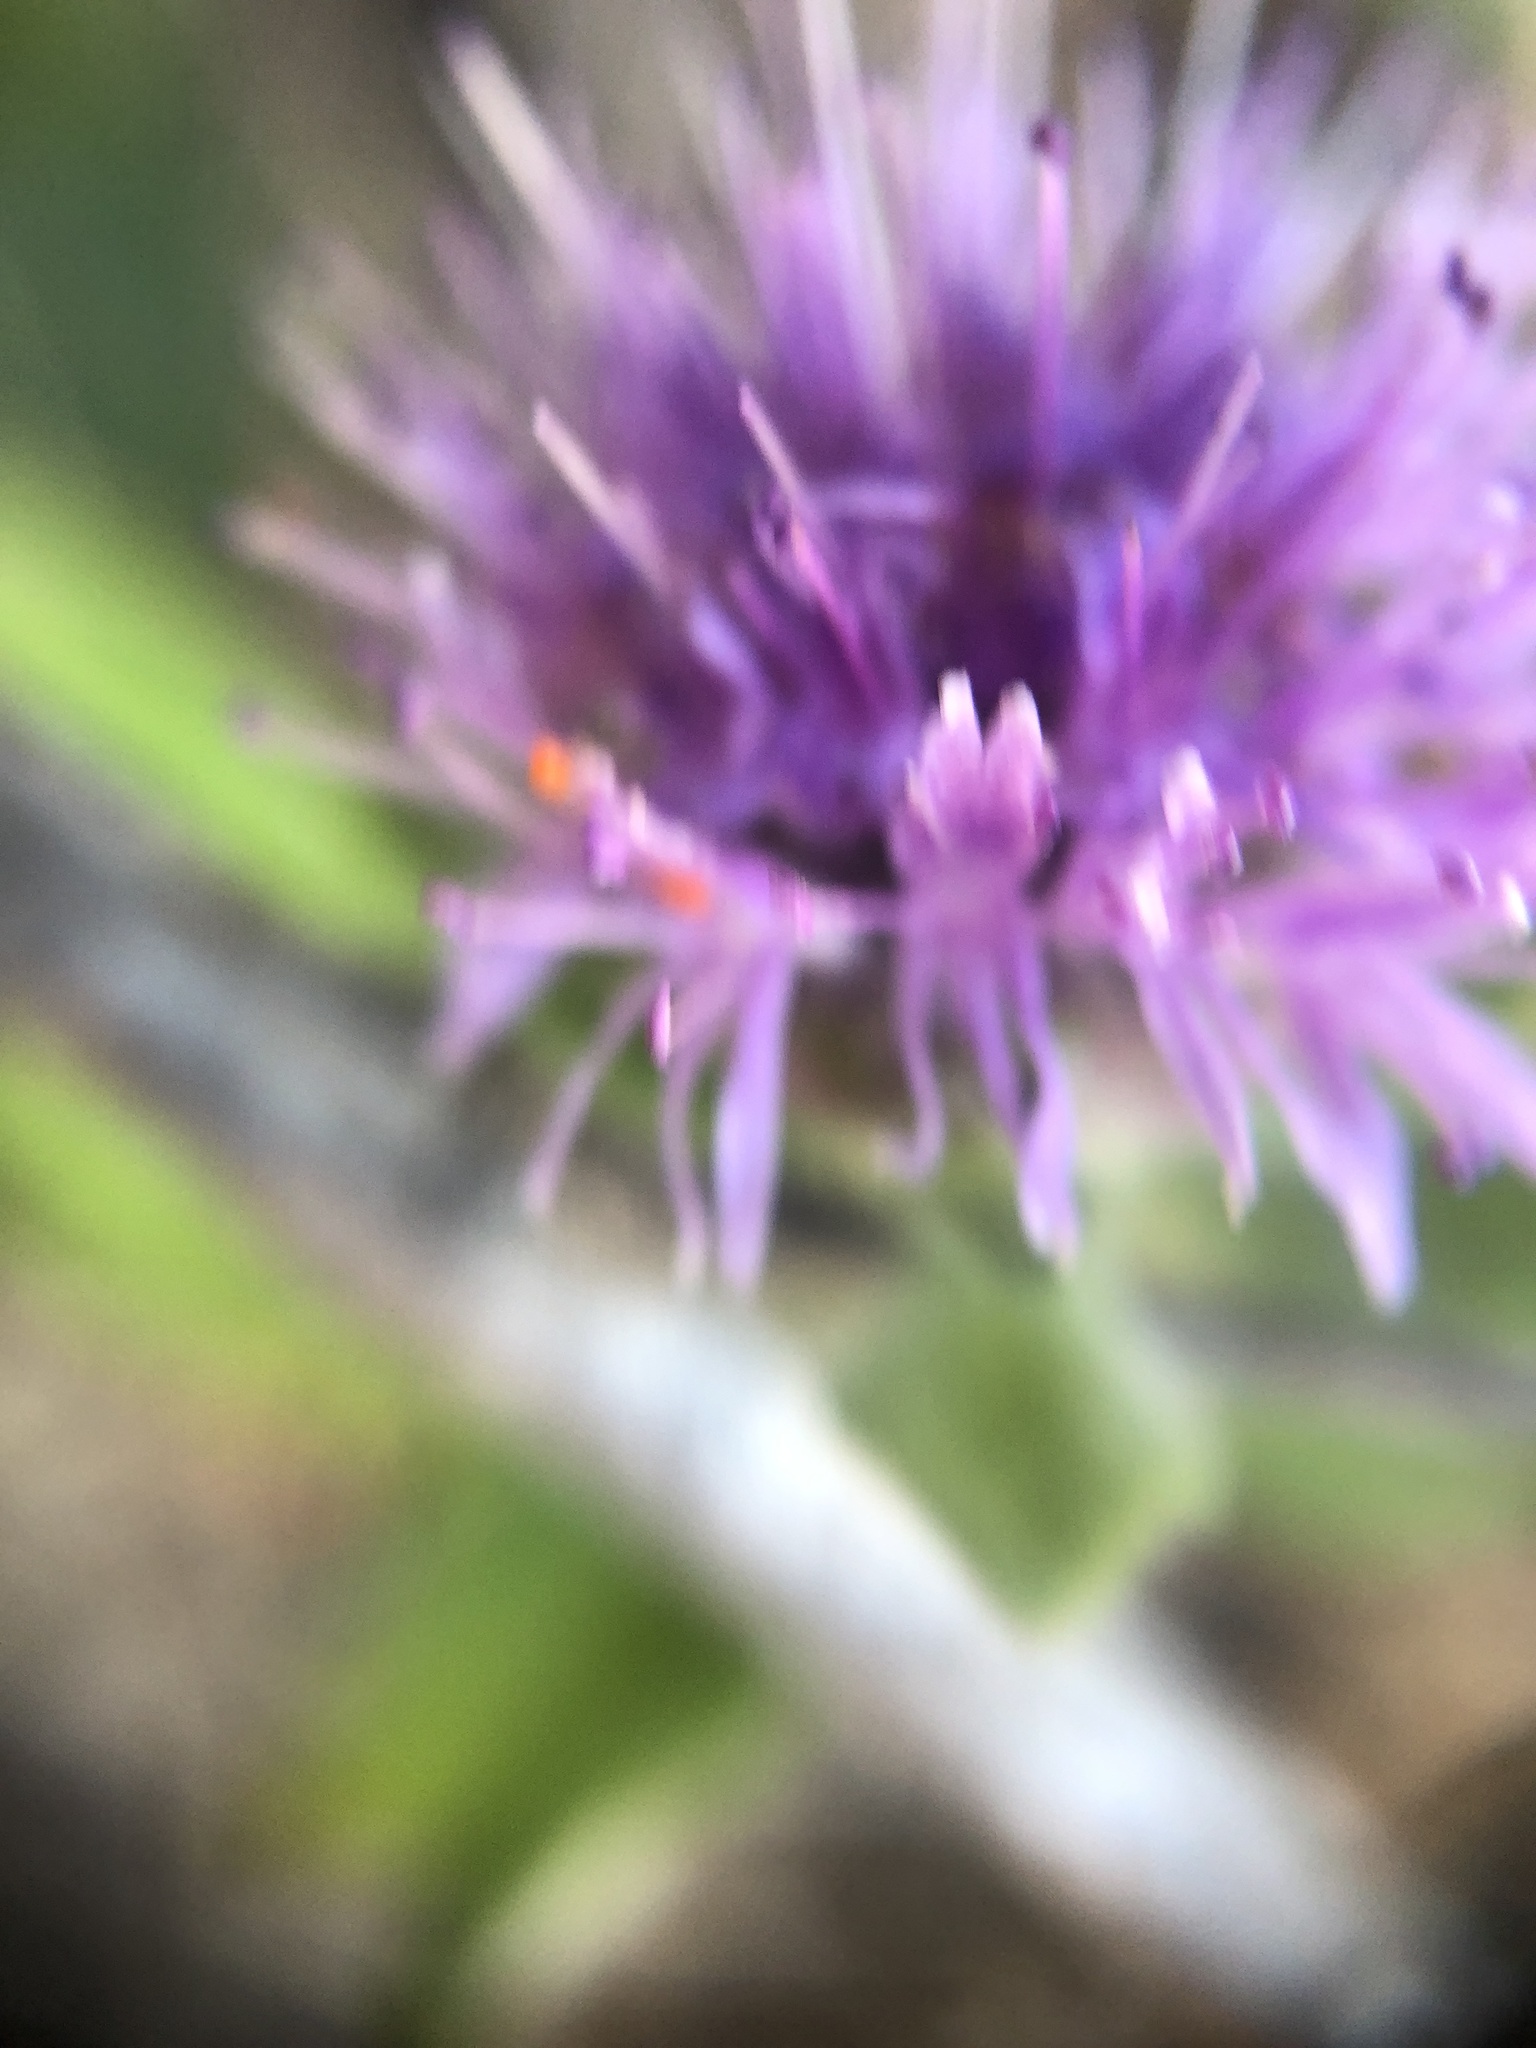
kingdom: Plantae
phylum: Tracheophyta
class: Magnoliopsida
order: Lamiales
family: Lamiaceae
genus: Monardella
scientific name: Monardella odoratissima
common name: Pacific monardella
